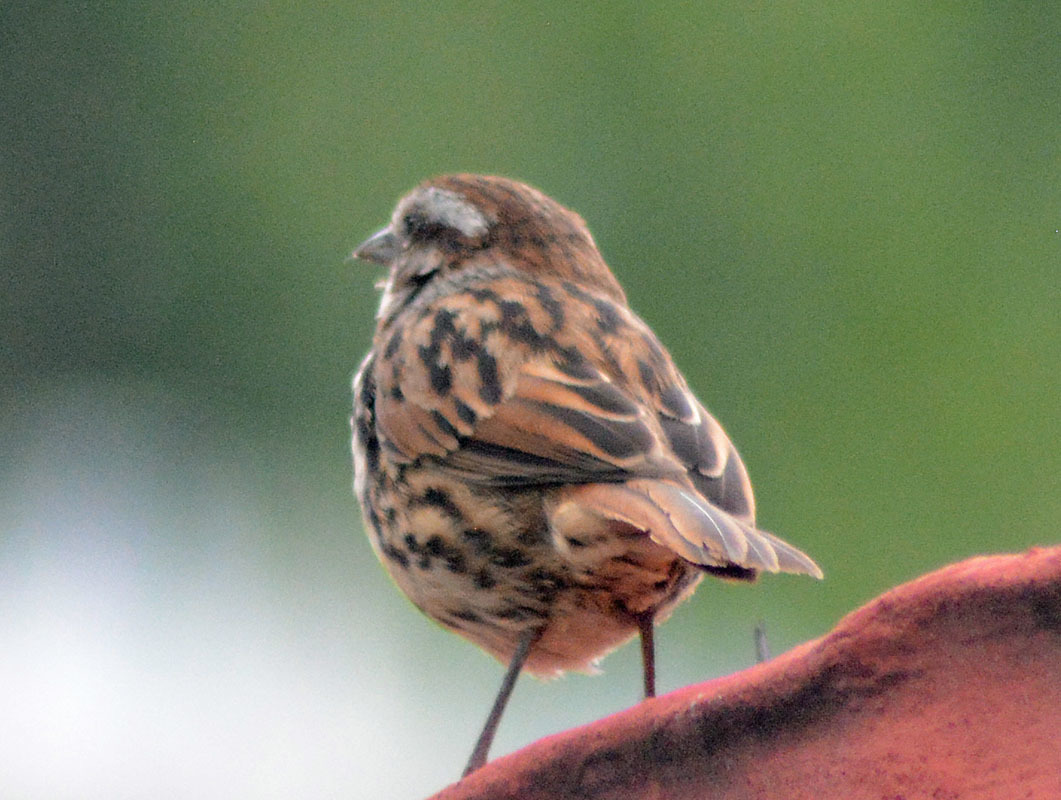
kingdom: Animalia
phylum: Chordata
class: Aves
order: Passeriformes
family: Passerellidae
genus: Melospiza
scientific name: Melospiza melodia
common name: Song sparrow
